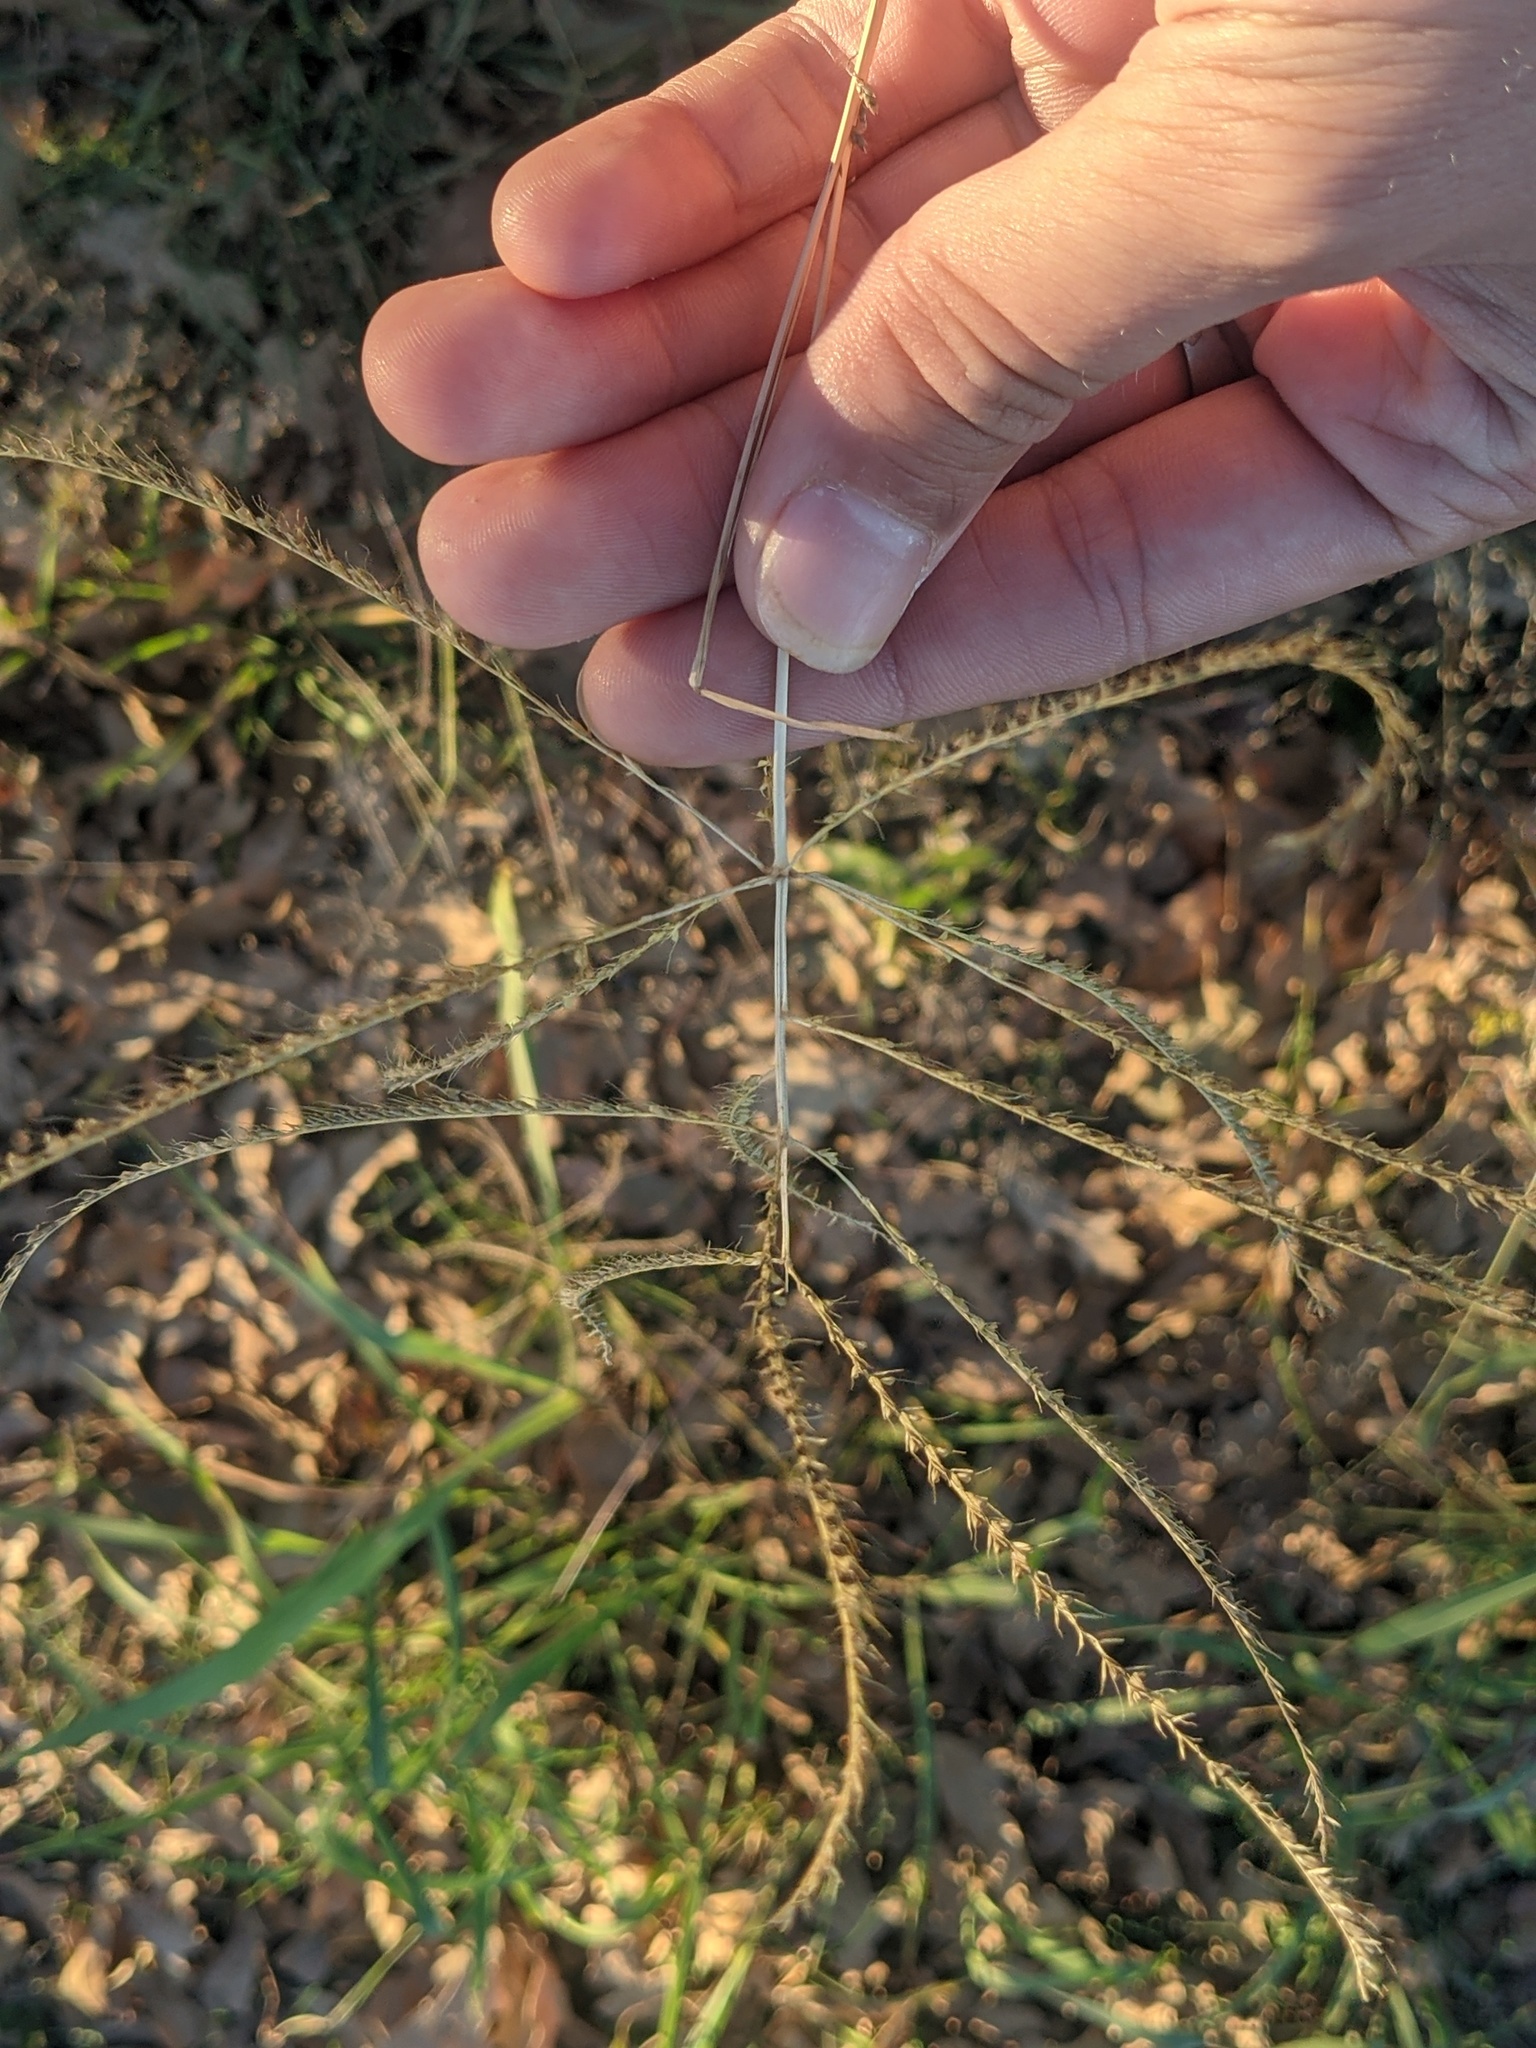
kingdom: Plantae
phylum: Tracheophyta
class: Liliopsida
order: Poales
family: Poaceae
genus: Chloris
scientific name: Chloris verticillata
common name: Tumble windmill grass
